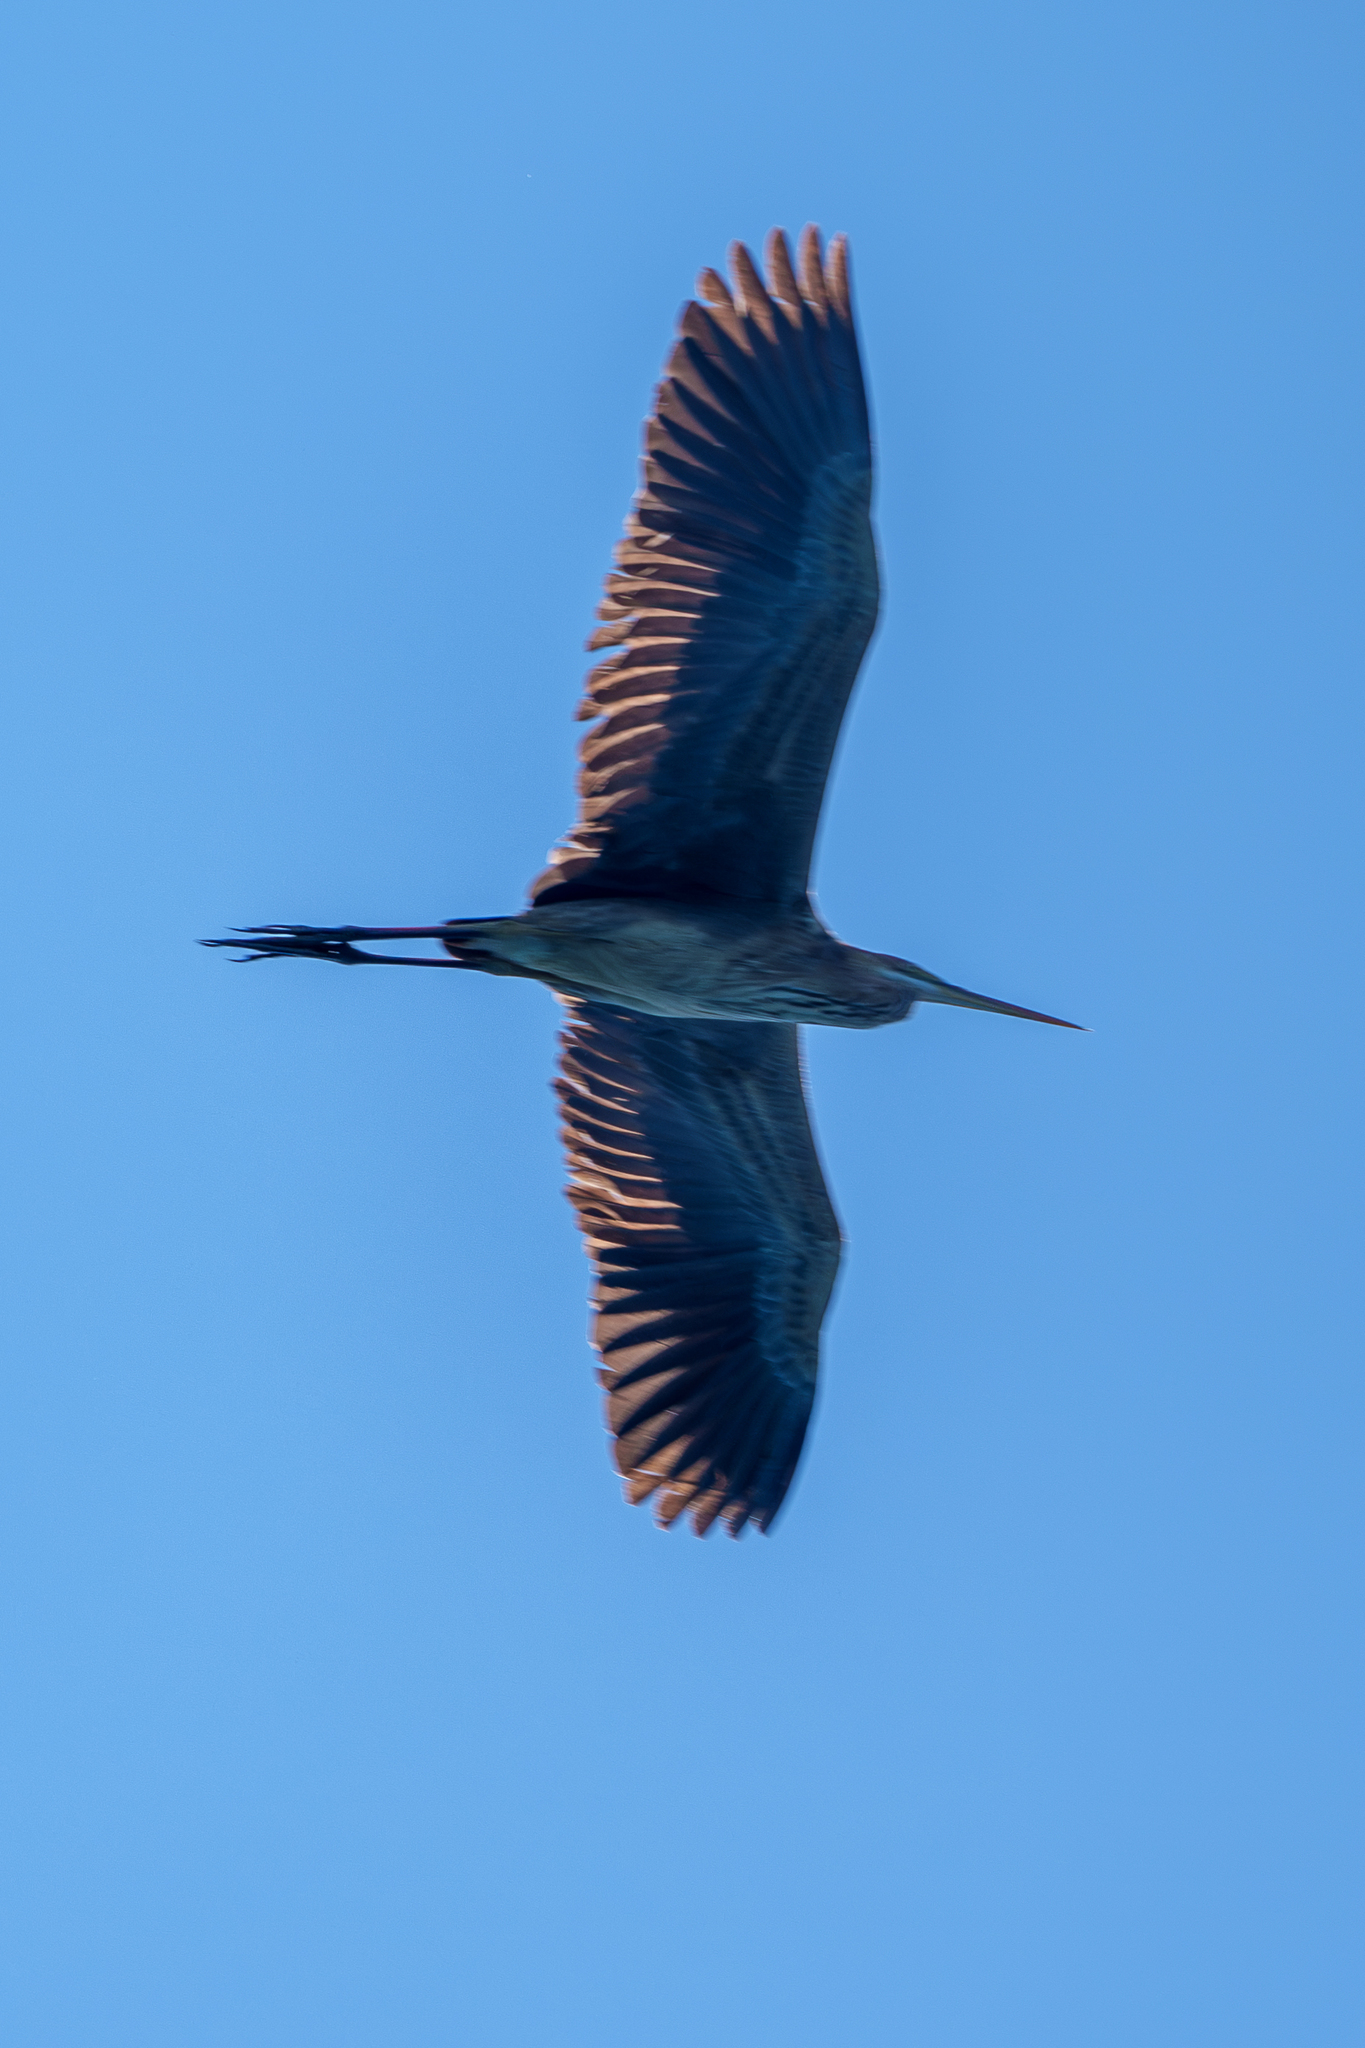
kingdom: Animalia
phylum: Chordata
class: Aves
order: Pelecaniformes
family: Ardeidae
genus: Ardea
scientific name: Ardea purpurea
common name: Purple heron
